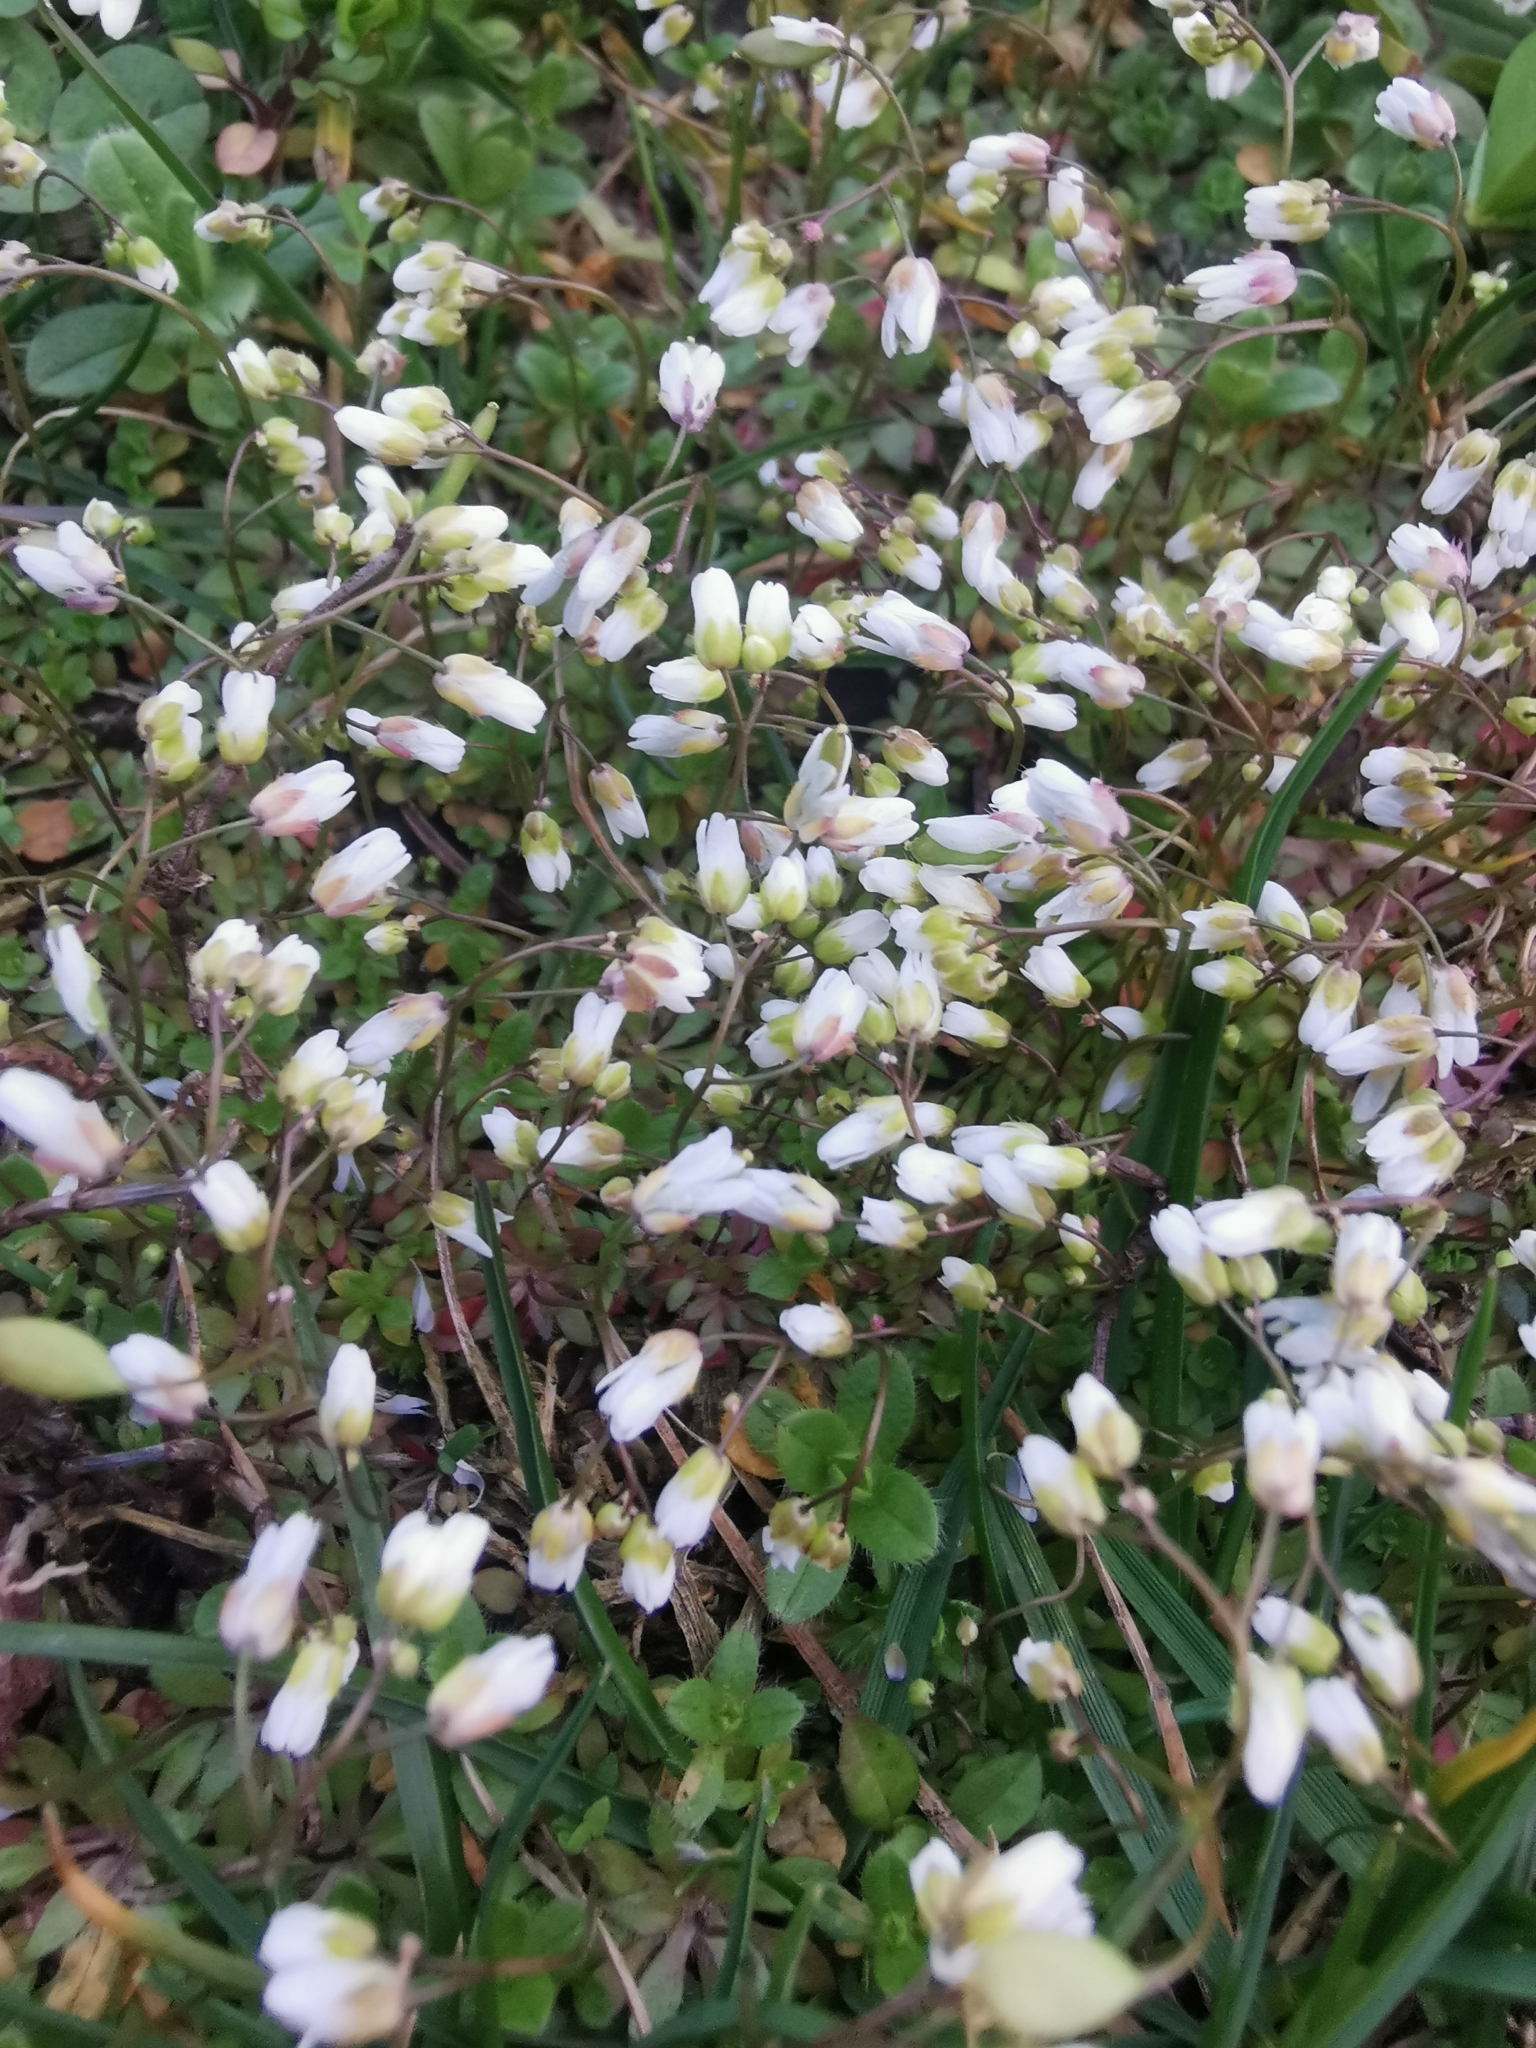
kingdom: Plantae
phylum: Tracheophyta
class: Magnoliopsida
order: Brassicales
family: Brassicaceae
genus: Draba
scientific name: Draba verna
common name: Spring draba
